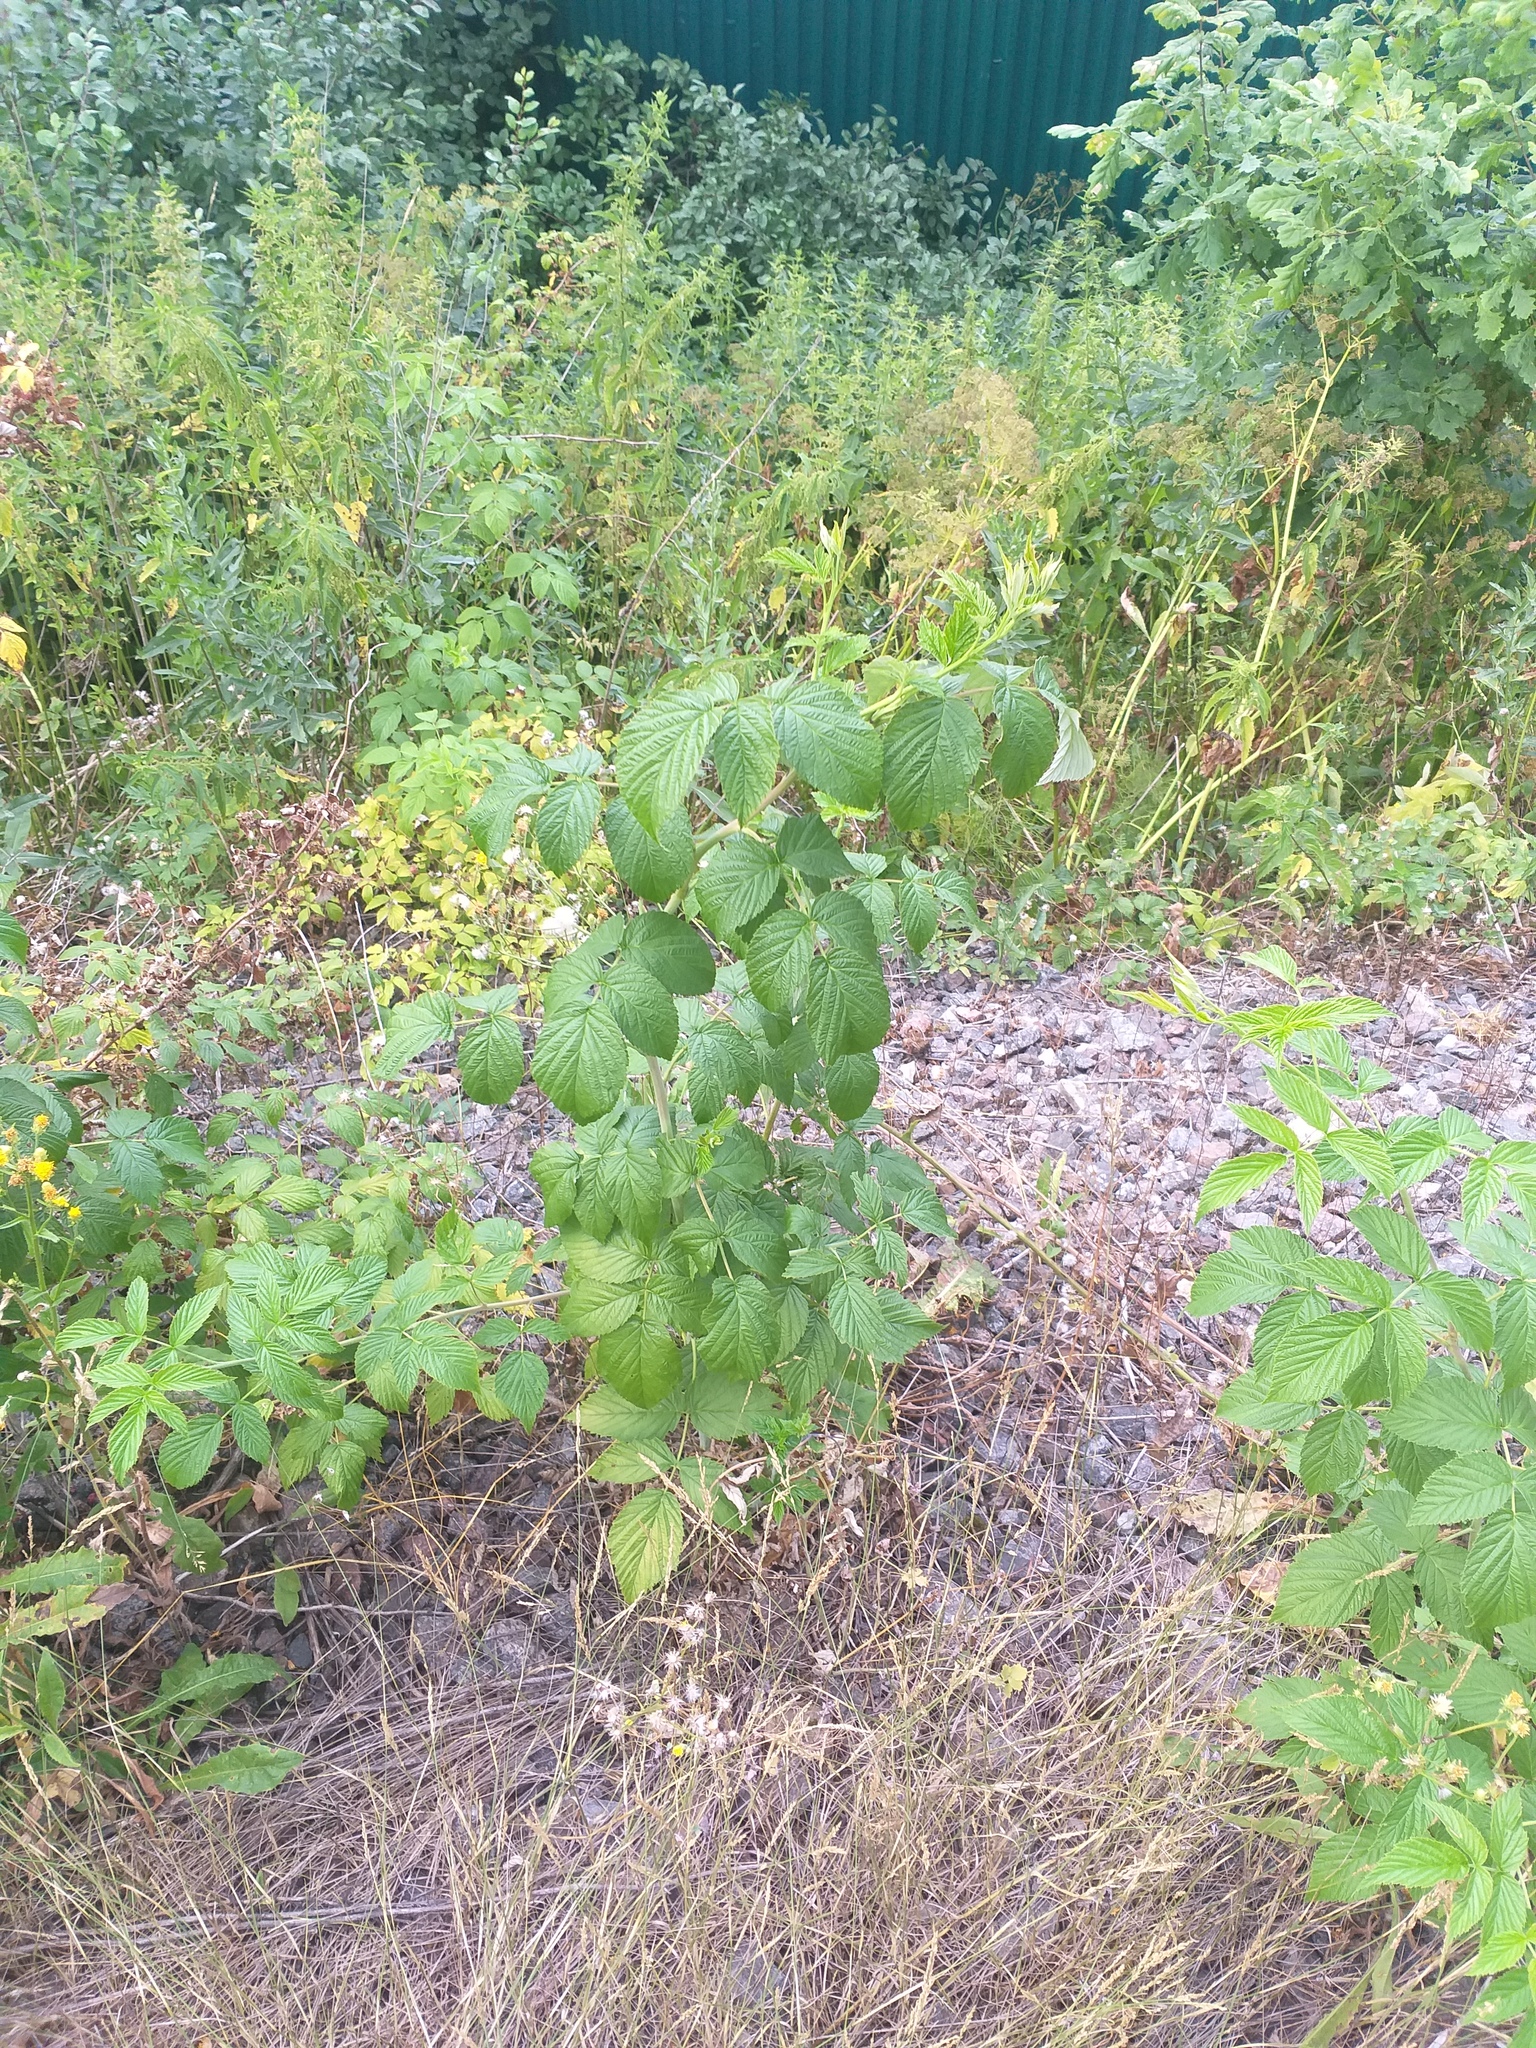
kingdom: Plantae
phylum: Tracheophyta
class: Magnoliopsida
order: Rosales
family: Rosaceae
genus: Rubus
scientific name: Rubus idaeus
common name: Raspberry
